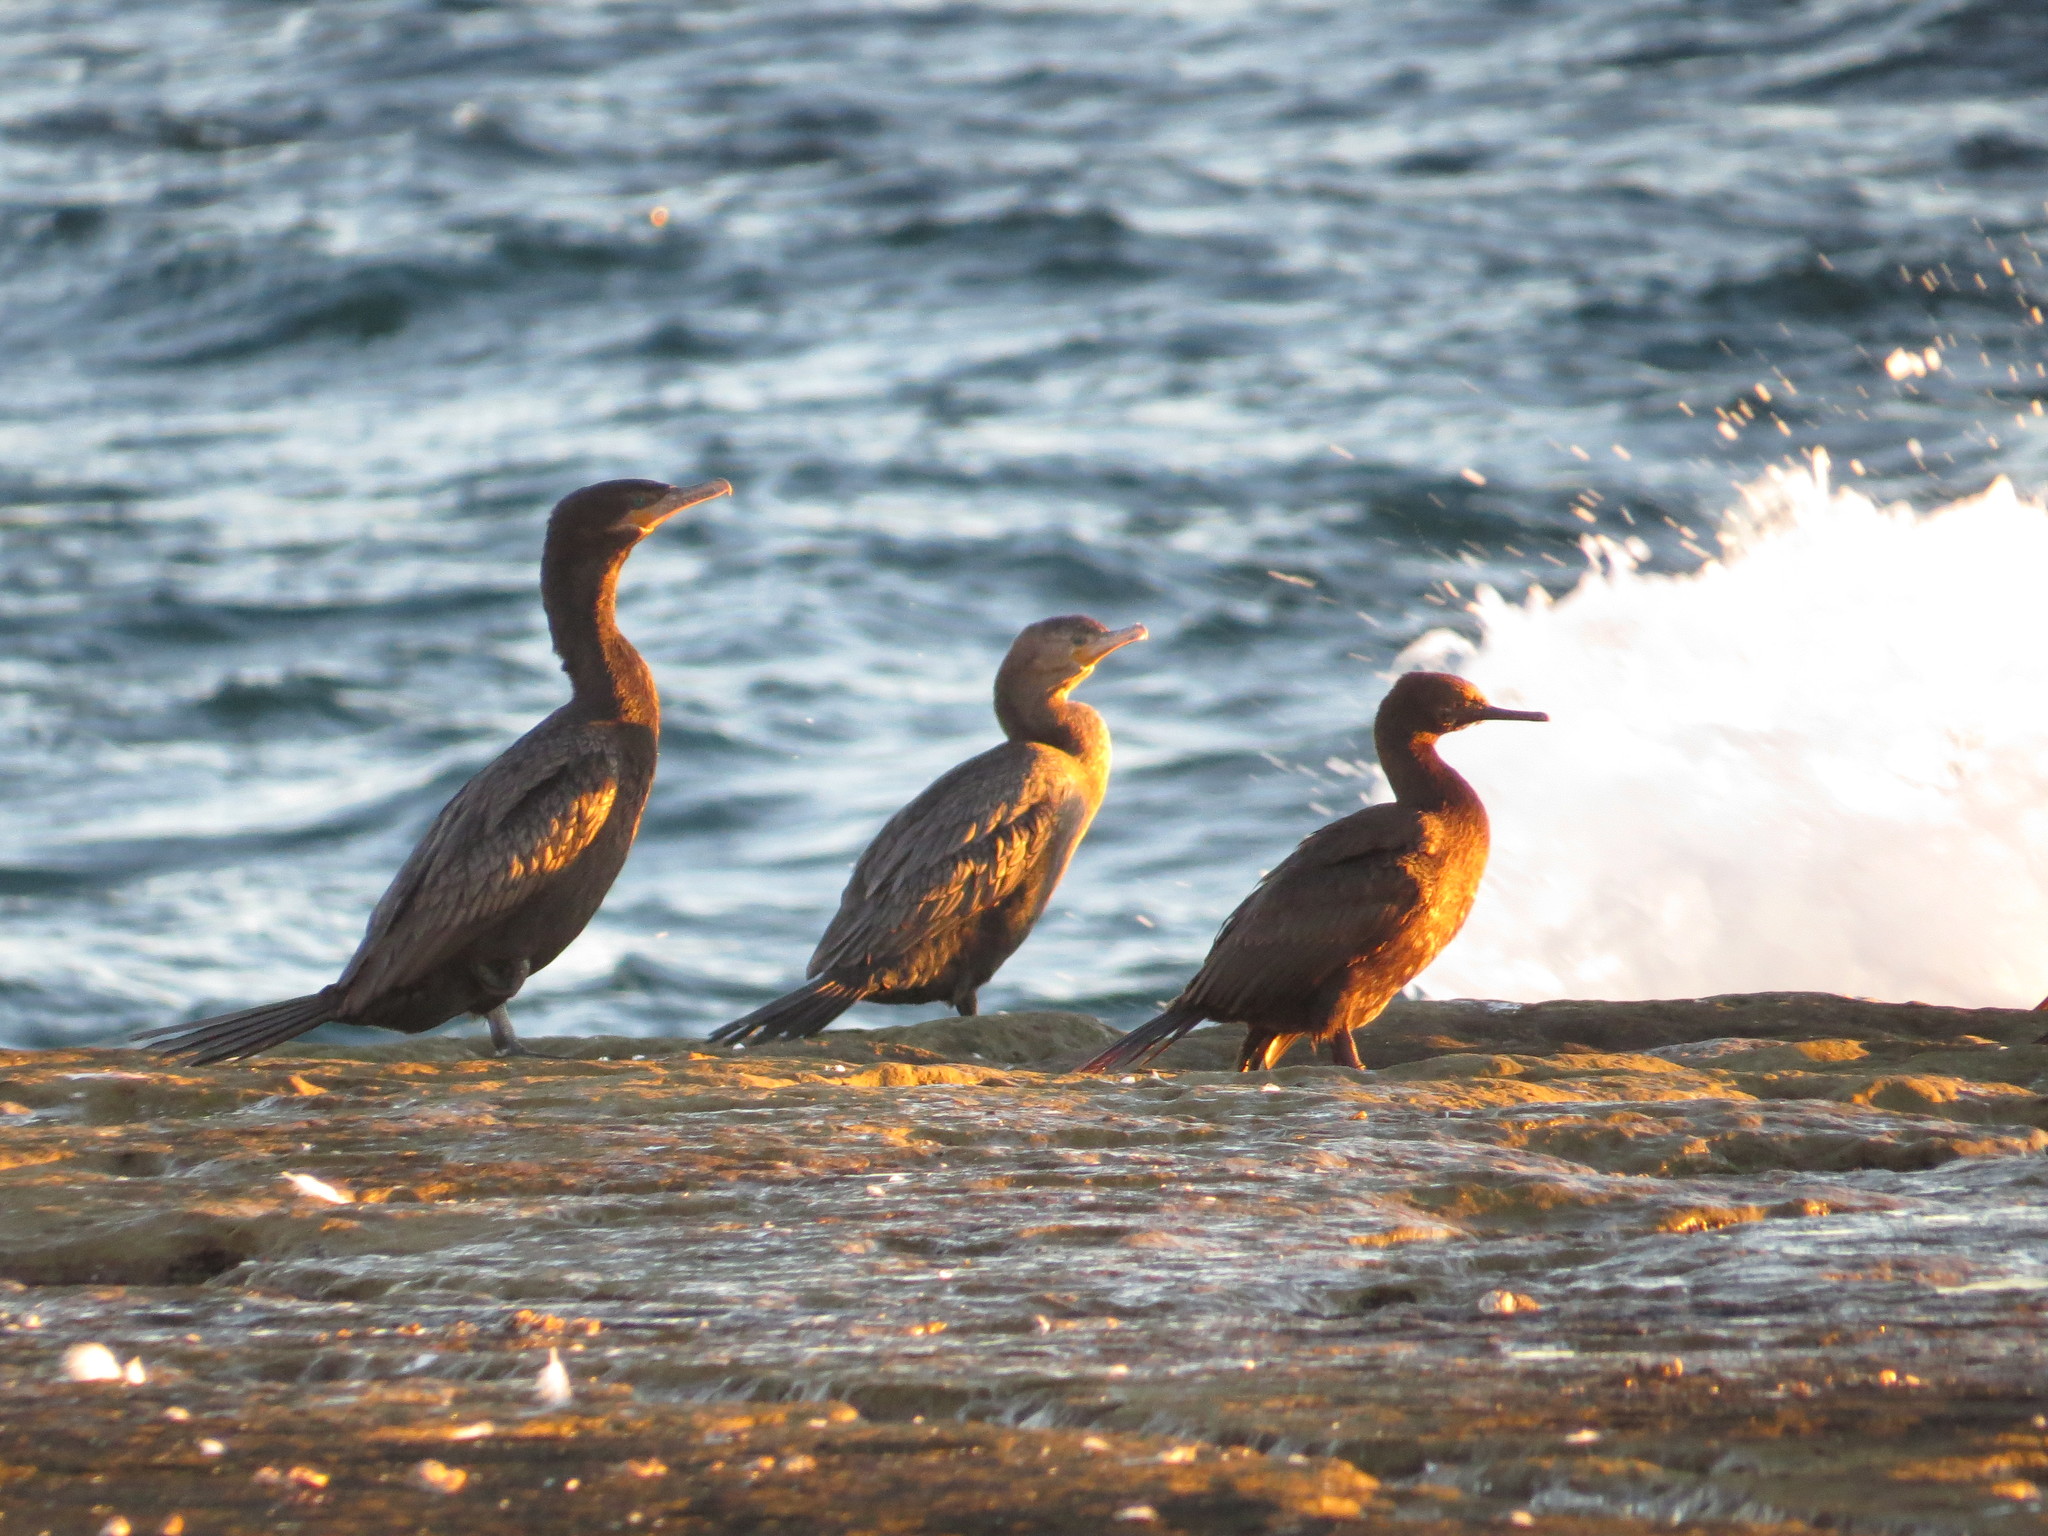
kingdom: Animalia
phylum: Chordata
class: Aves
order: Suliformes
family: Phalacrocoracidae
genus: Phalacrocorax
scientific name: Phalacrocorax brasilianus
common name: Neotropic cormorant
